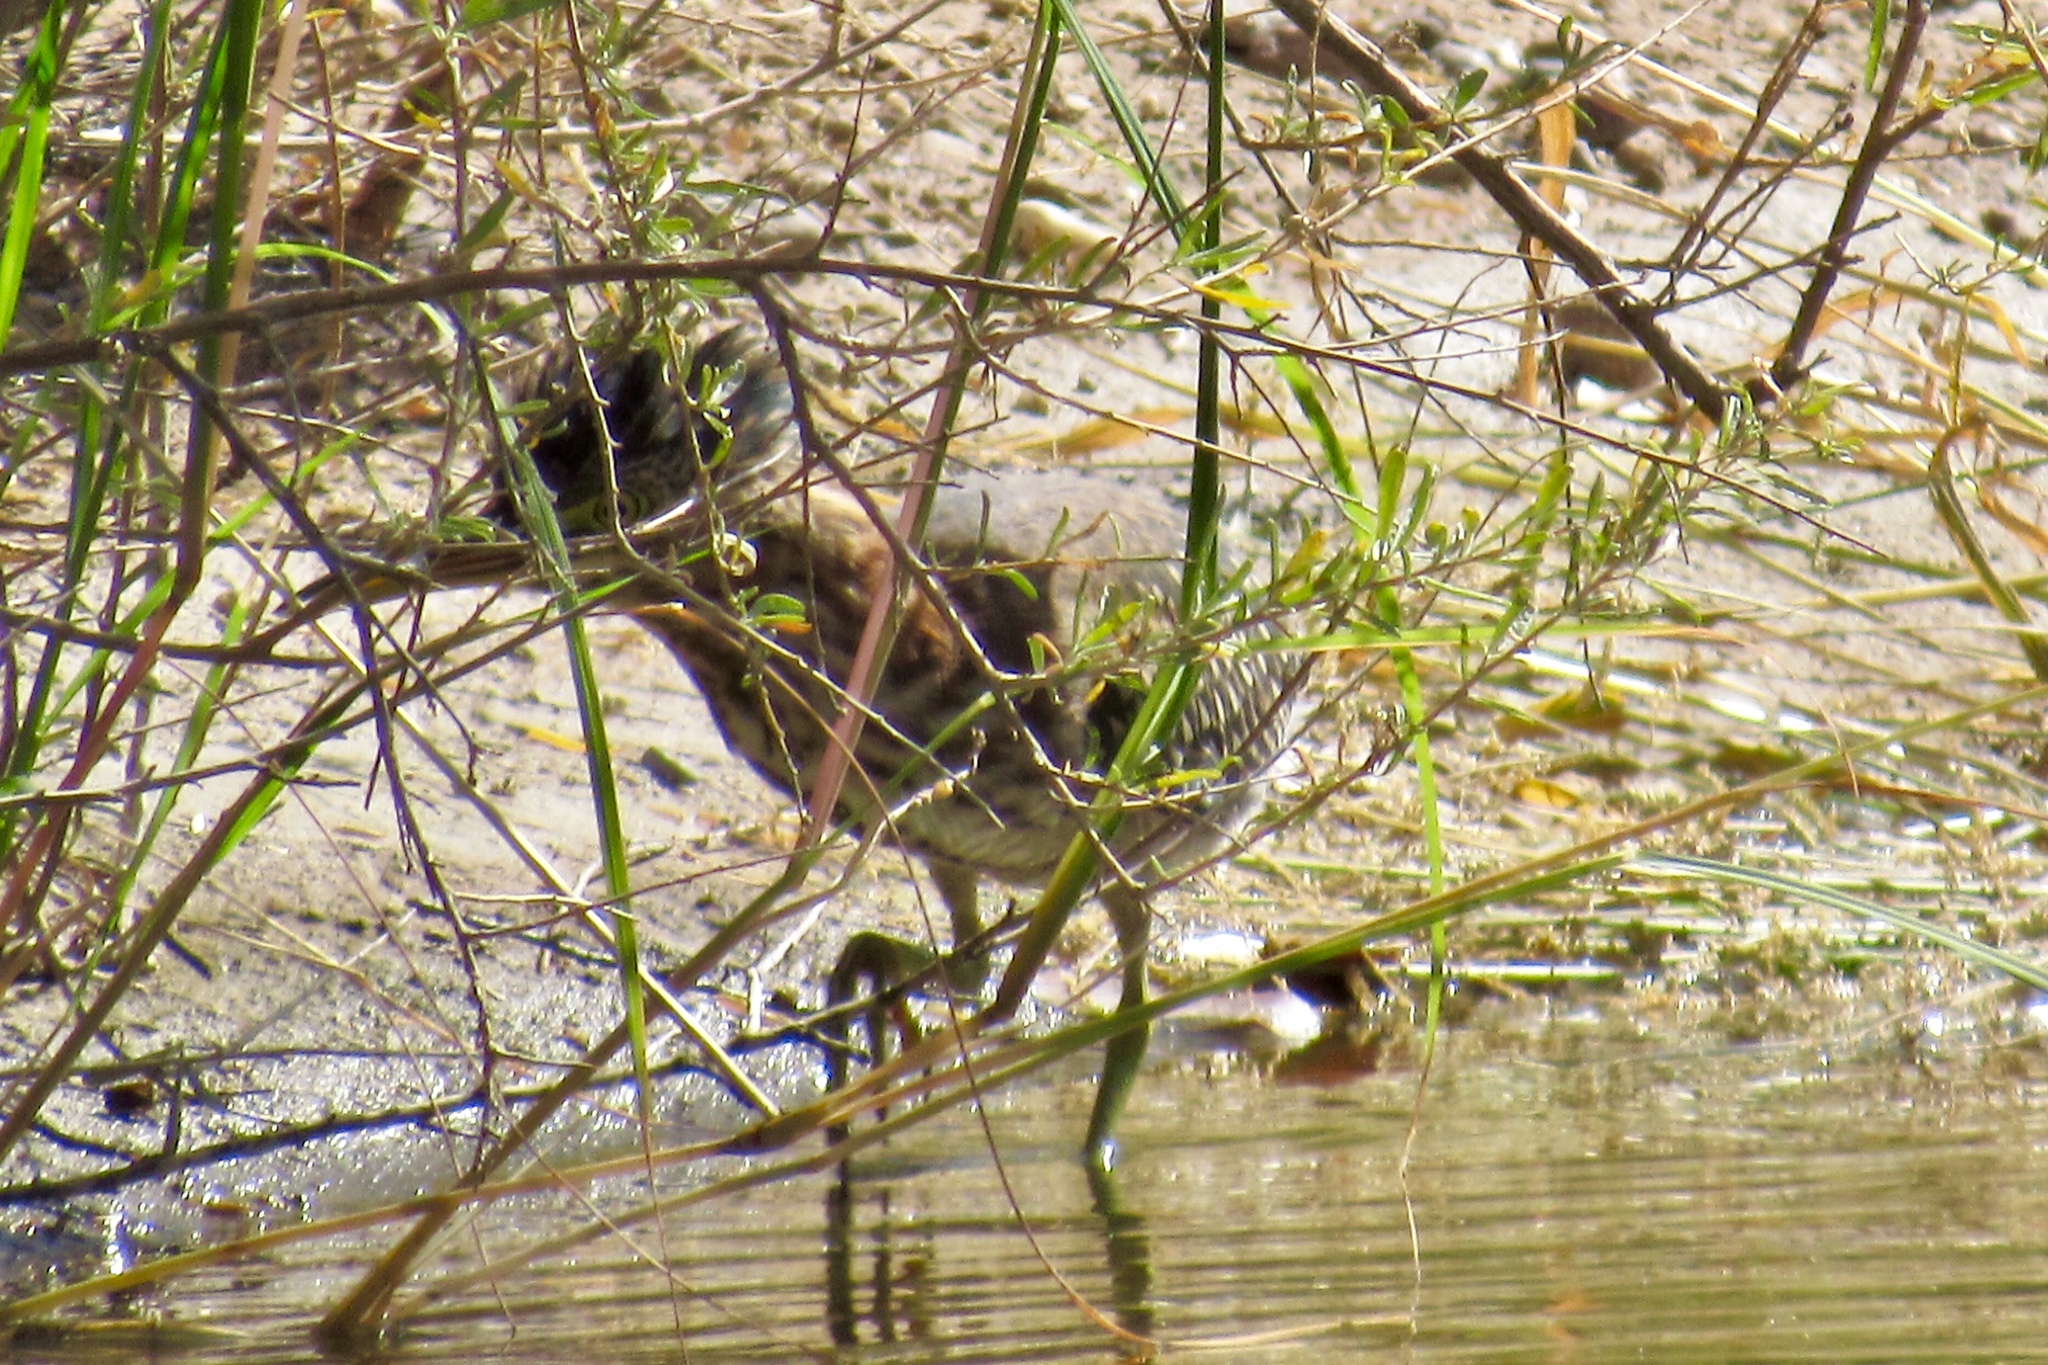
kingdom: Animalia
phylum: Chordata
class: Aves
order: Pelecaniformes
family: Ardeidae
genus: Butorides
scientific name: Butorides virescens
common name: Green heron
